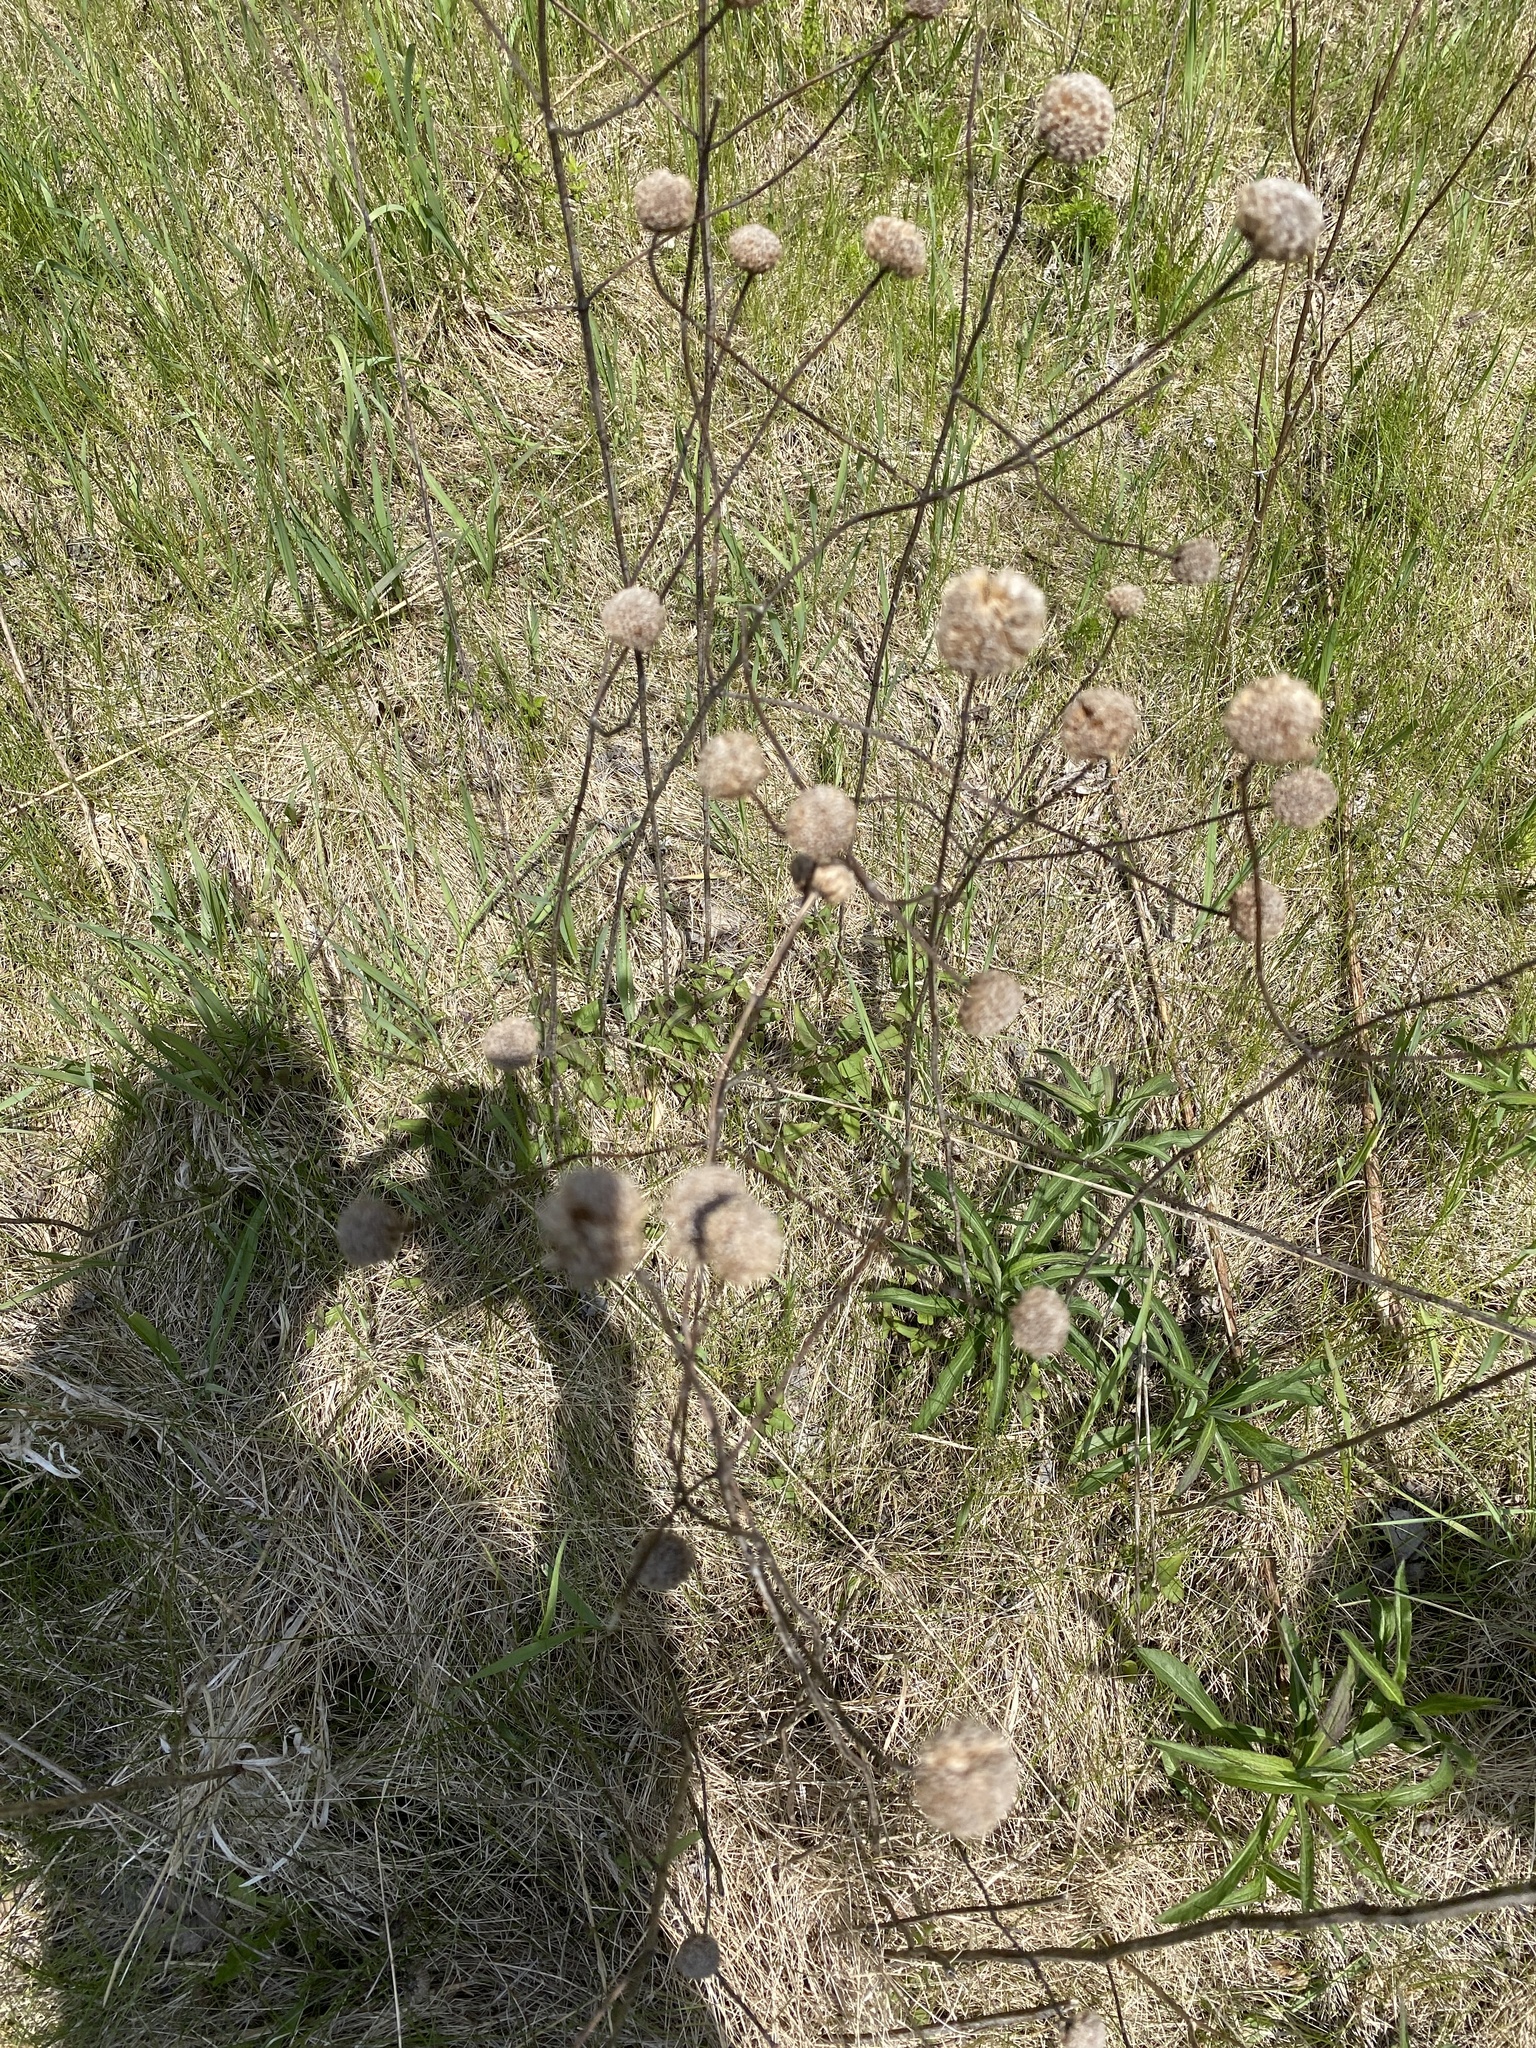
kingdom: Plantae
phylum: Tracheophyta
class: Magnoliopsida
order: Lamiales
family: Lamiaceae
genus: Monarda
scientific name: Monarda fistulosa
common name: Purple beebalm
